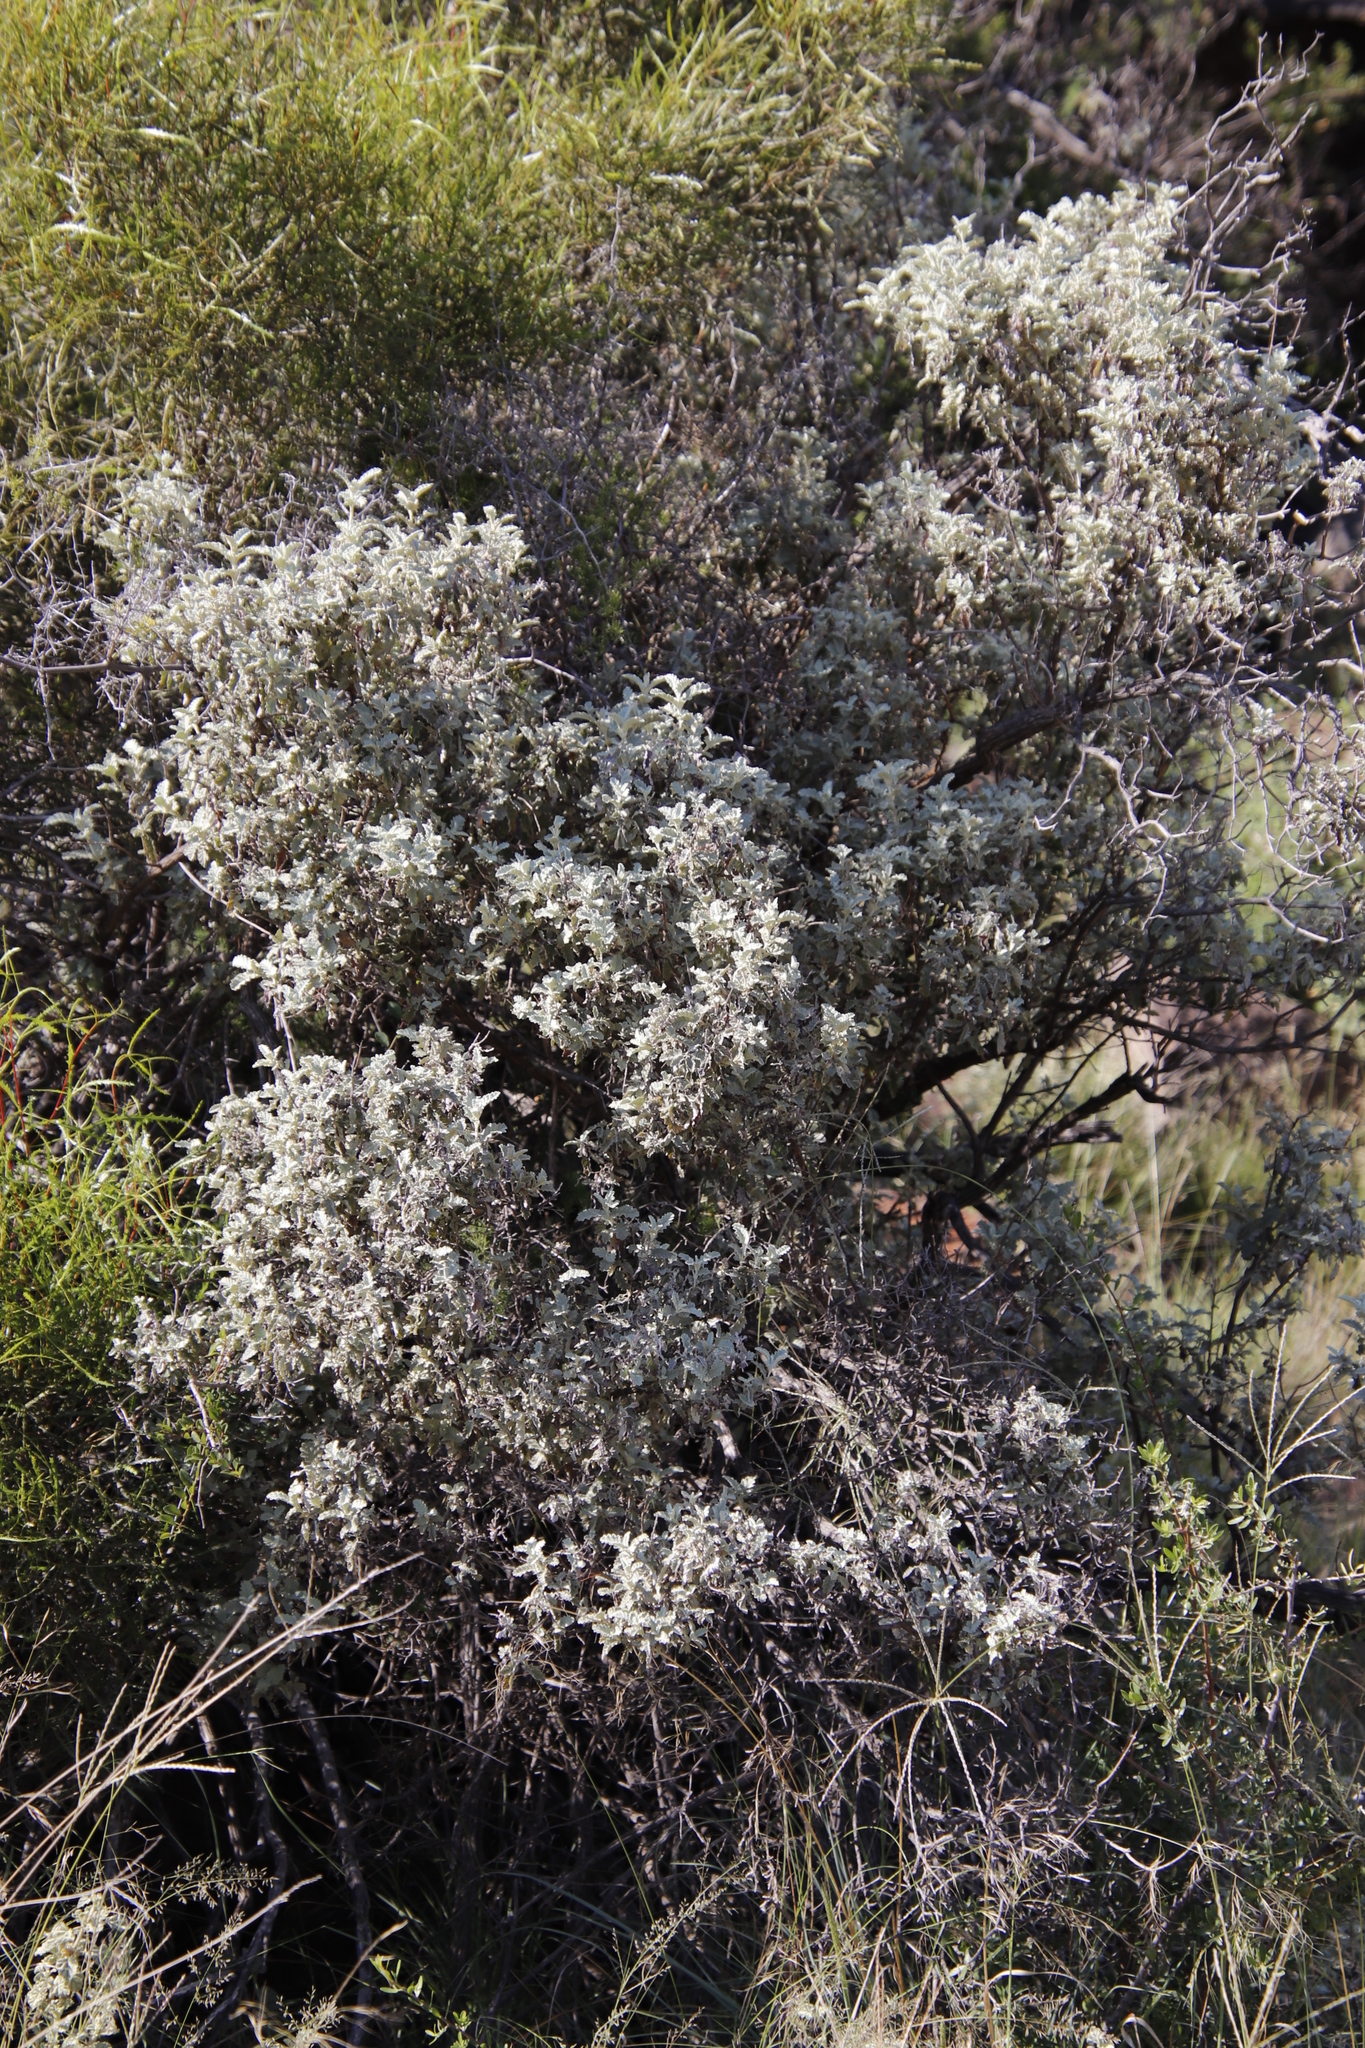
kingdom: Plantae
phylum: Tracheophyta
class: Magnoliopsida
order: Lamiales
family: Scrophulariaceae
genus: Buddleja
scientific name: Buddleja glomerata
